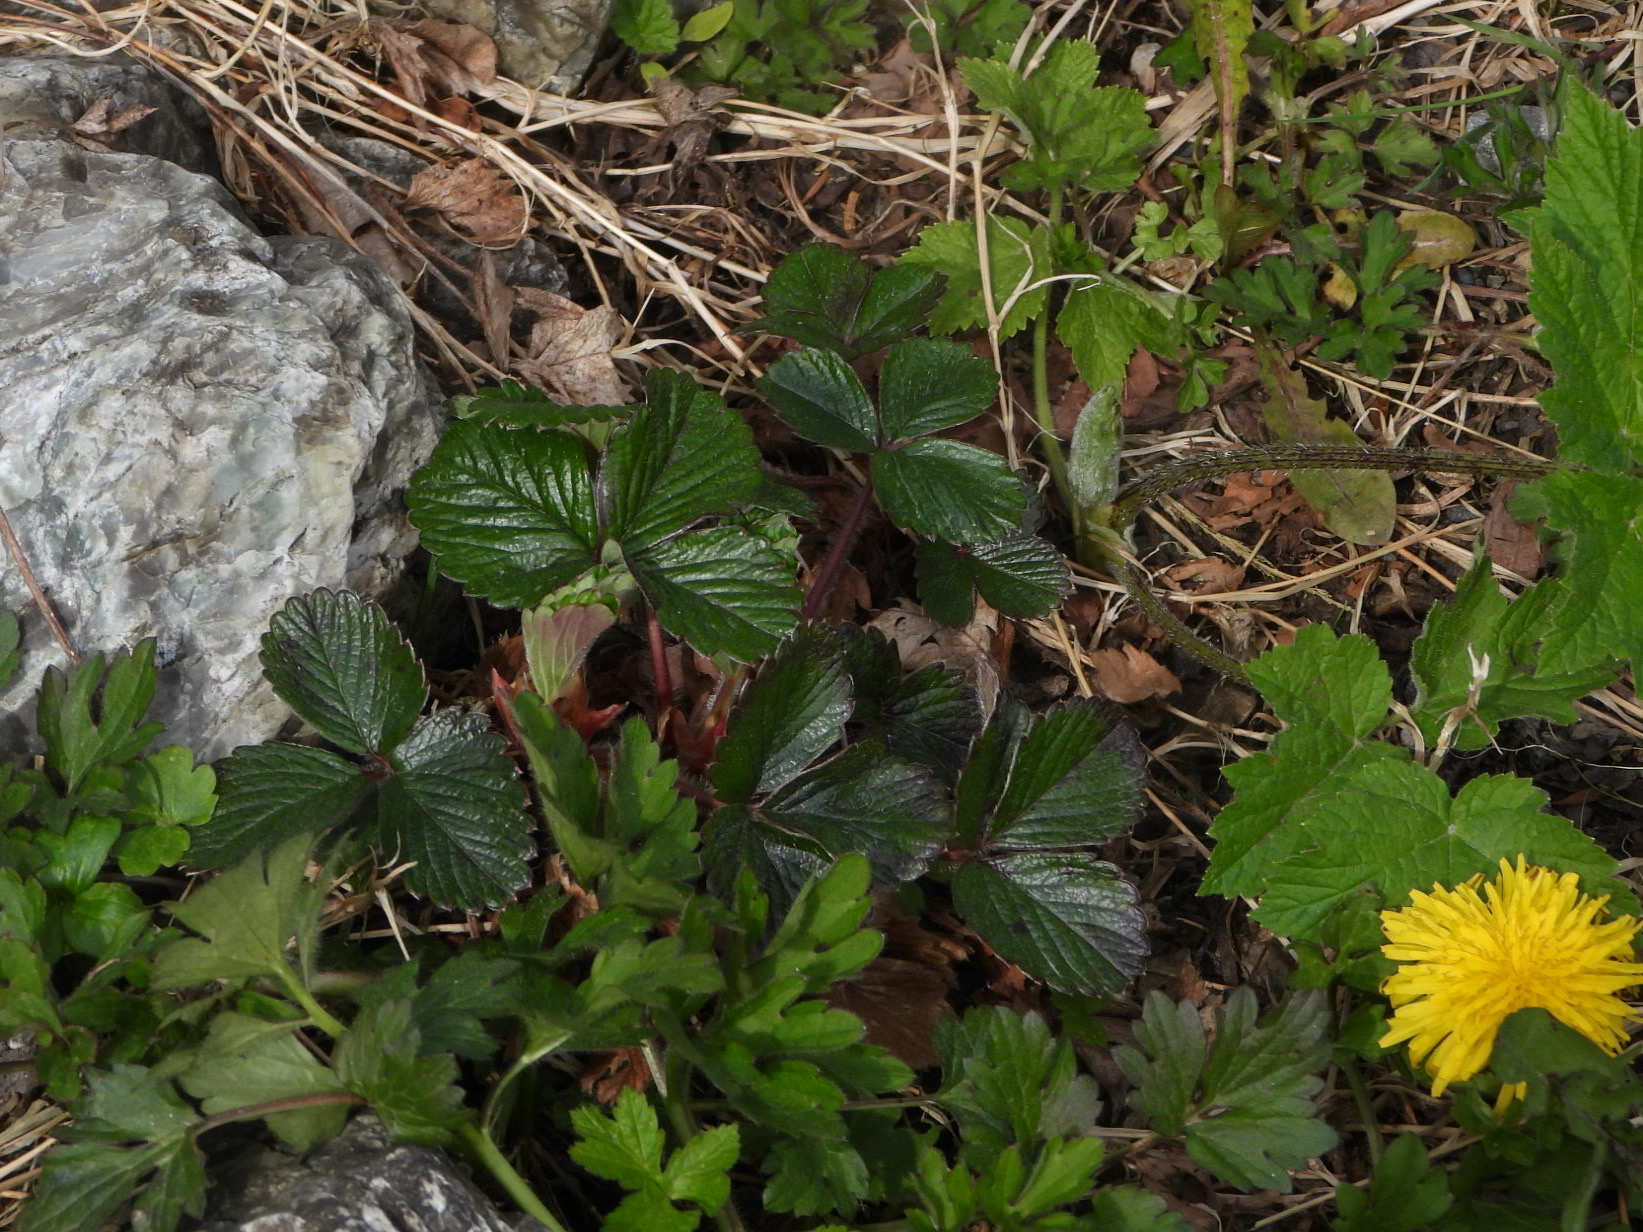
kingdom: Plantae
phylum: Tracheophyta
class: Magnoliopsida
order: Rosales
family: Rosaceae
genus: Fragaria
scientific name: Fragaria chiloensis
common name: Beach strawberry
